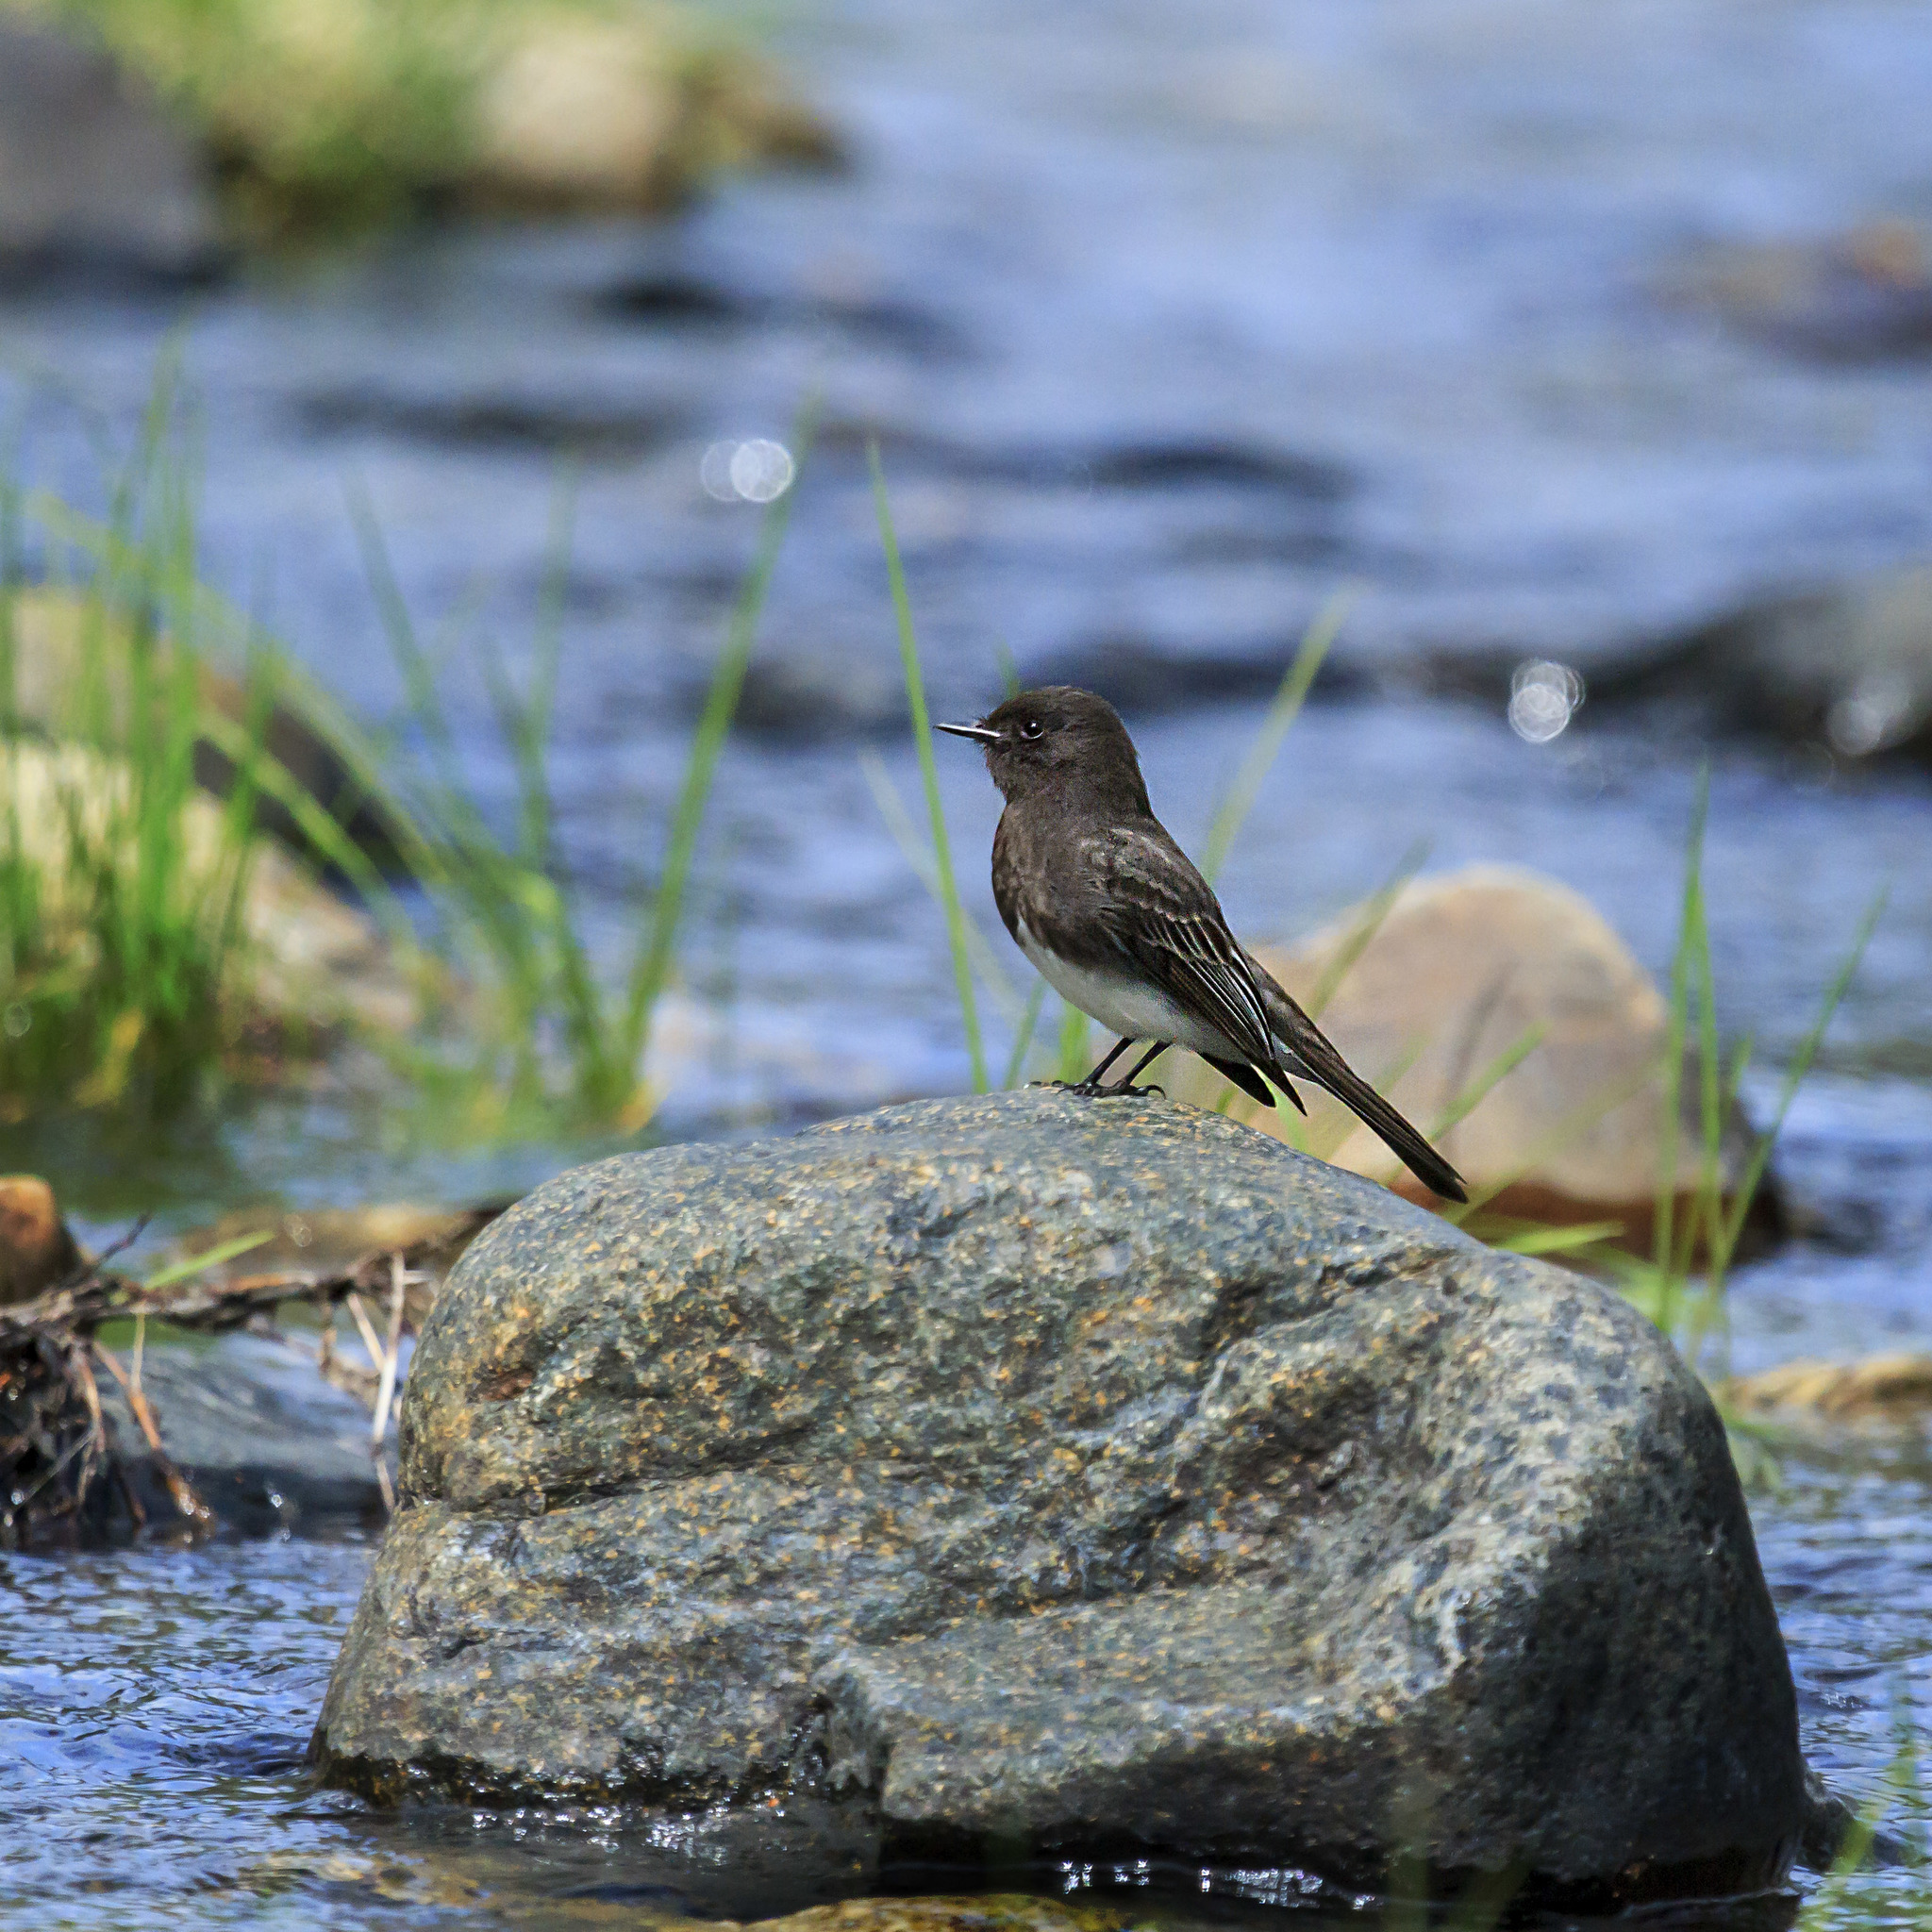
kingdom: Animalia
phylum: Chordata
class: Aves
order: Passeriformes
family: Tyrannidae
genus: Sayornis
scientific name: Sayornis nigricans
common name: Black phoebe
